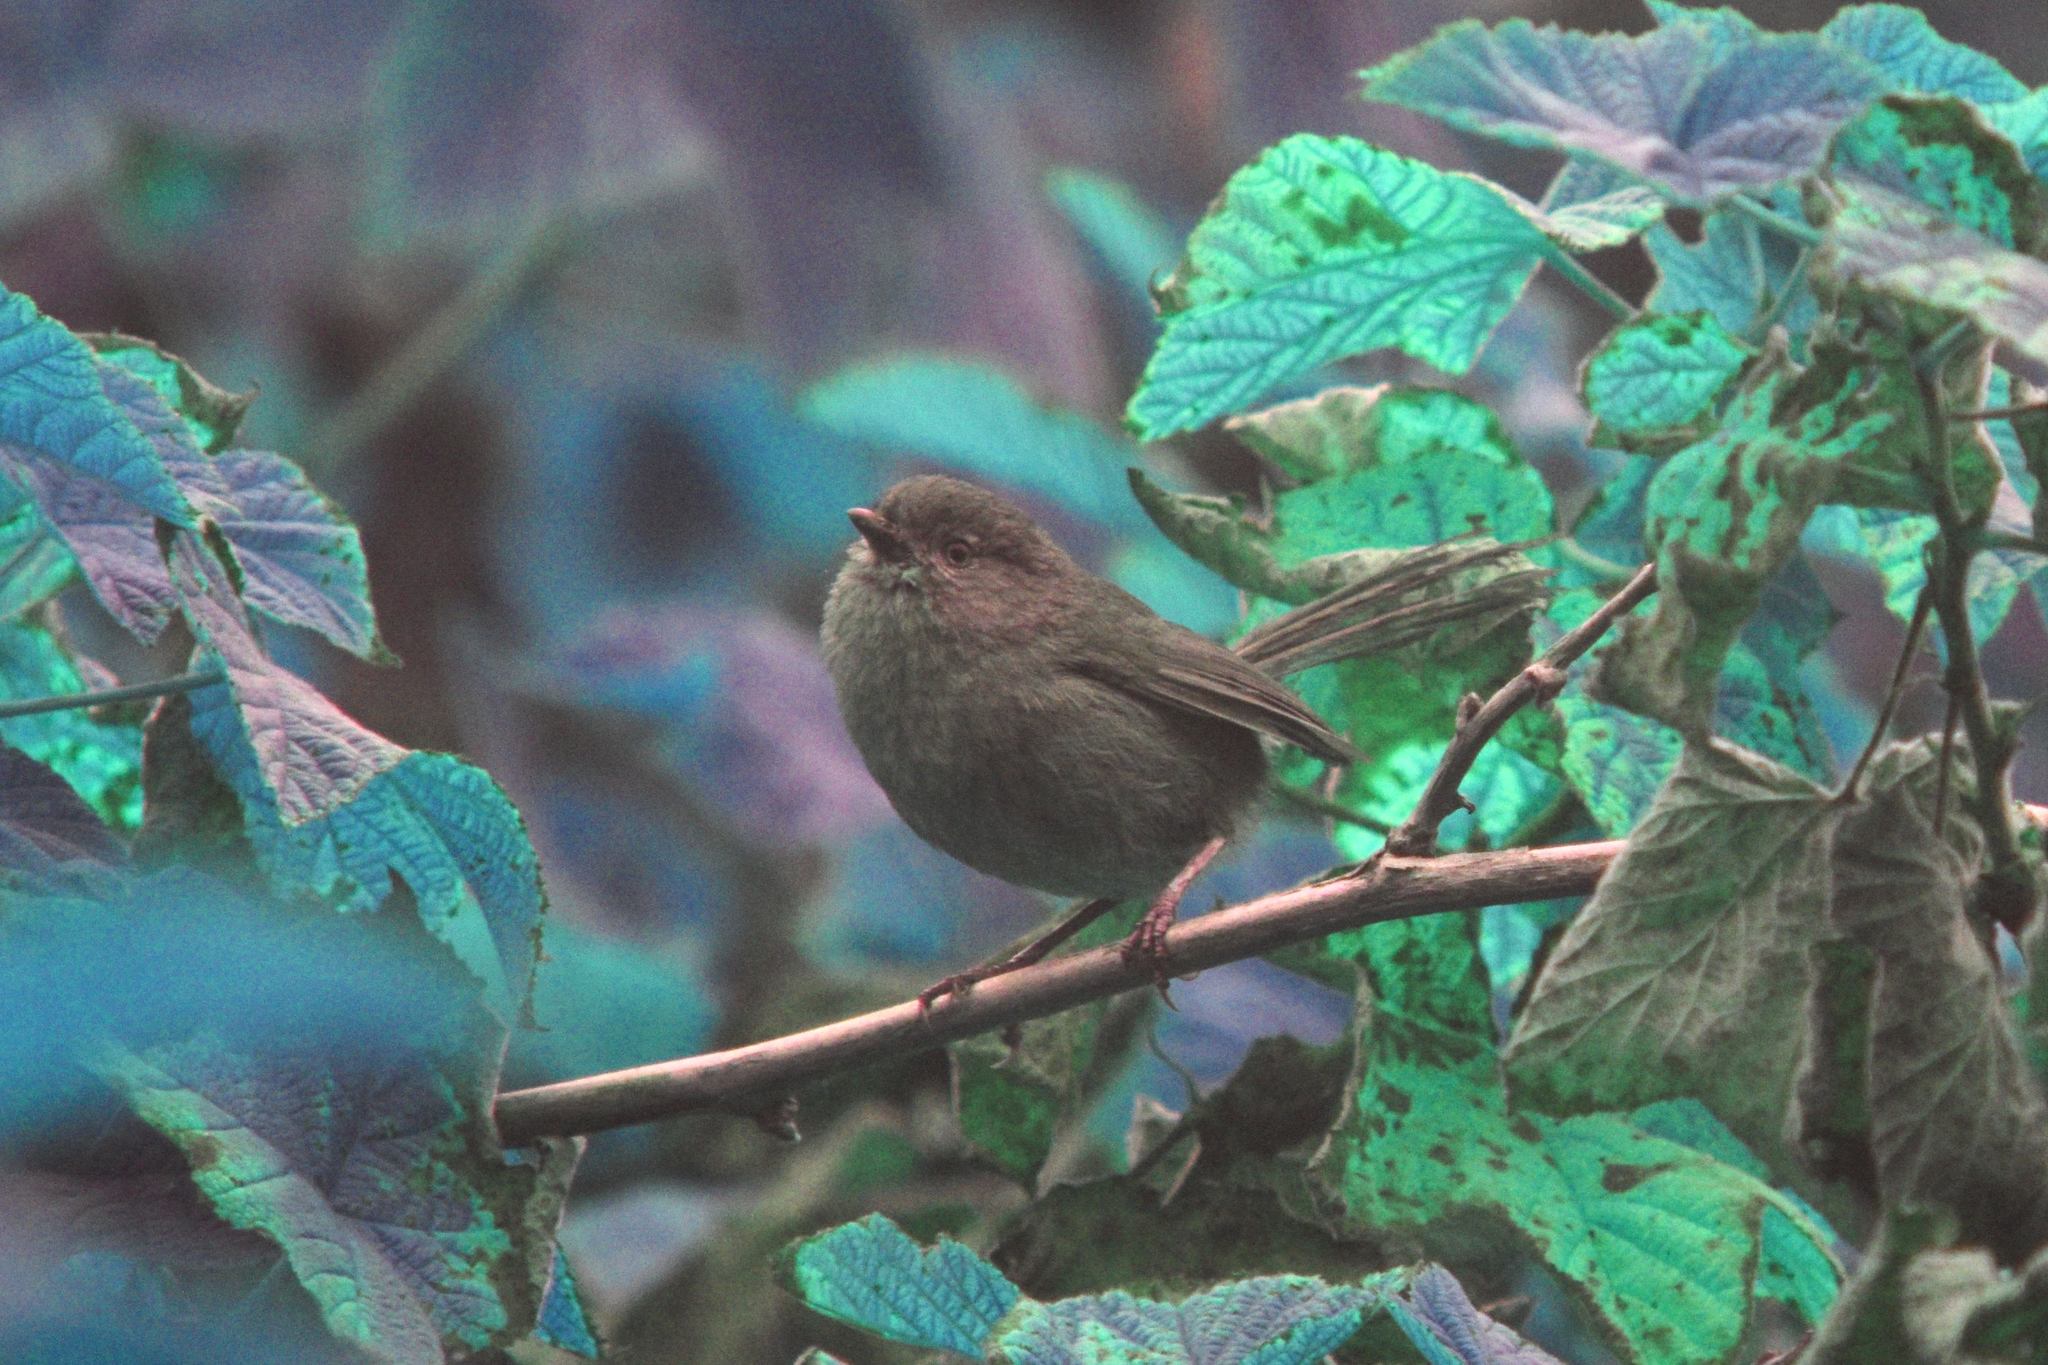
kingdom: Animalia
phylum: Chordata
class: Aves
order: Passeriformes
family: Sylviidae
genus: Chamaea
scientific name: Chamaea fasciata
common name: Wrentit
